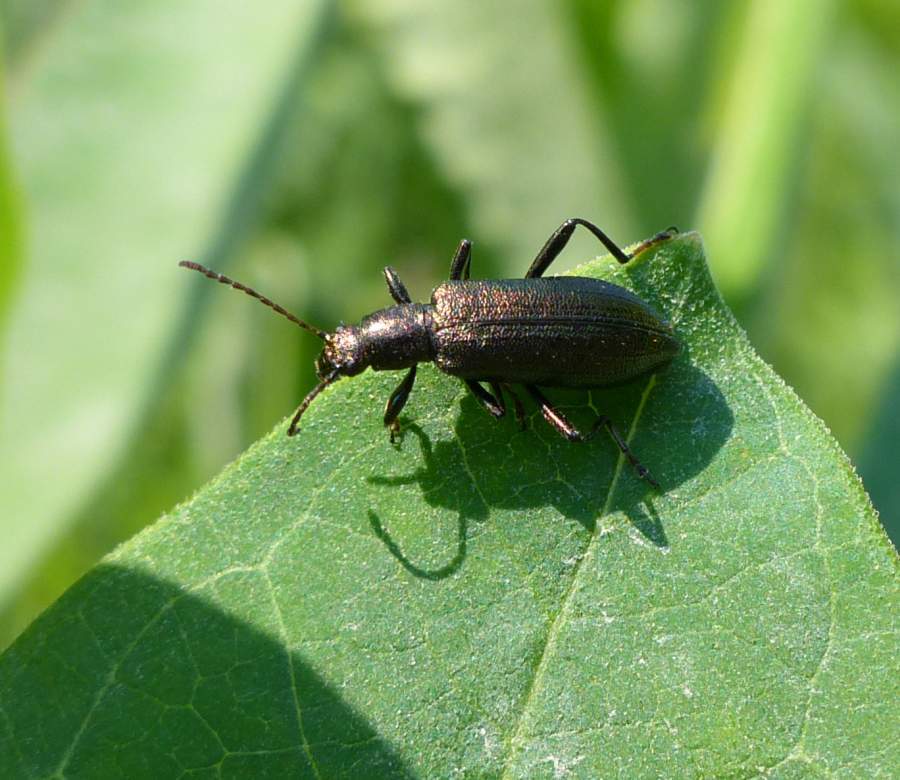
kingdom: Animalia
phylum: Arthropoda
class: Insecta
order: Coleoptera
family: Tenebrionidae
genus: Arthromacra
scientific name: Arthromacra aenea
